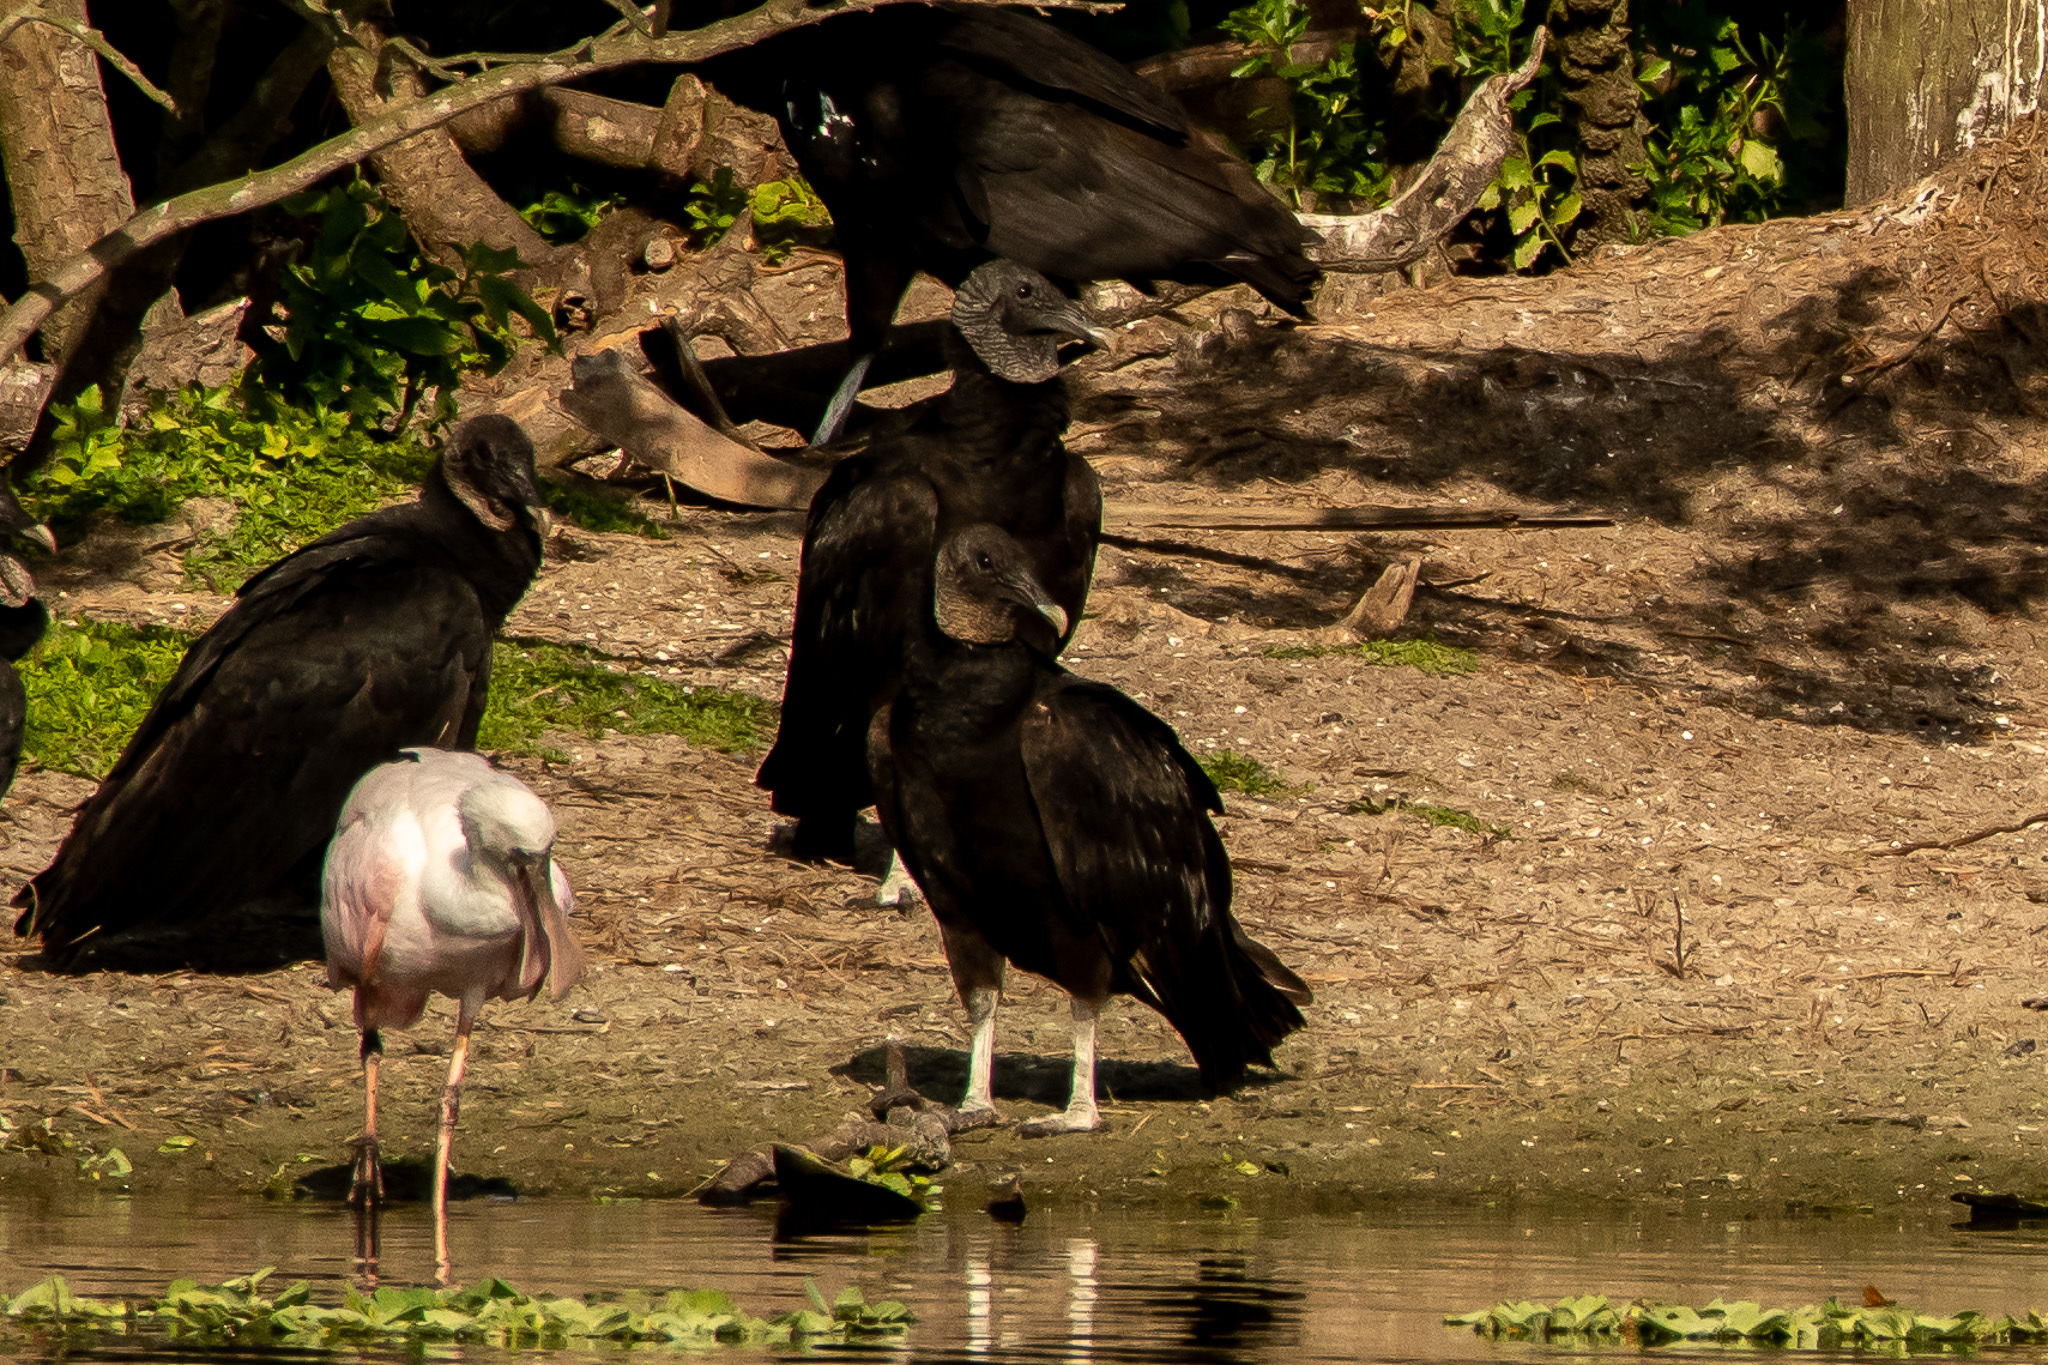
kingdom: Animalia
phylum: Chordata
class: Aves
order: Accipitriformes
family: Cathartidae
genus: Coragyps
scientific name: Coragyps atratus
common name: Black vulture
